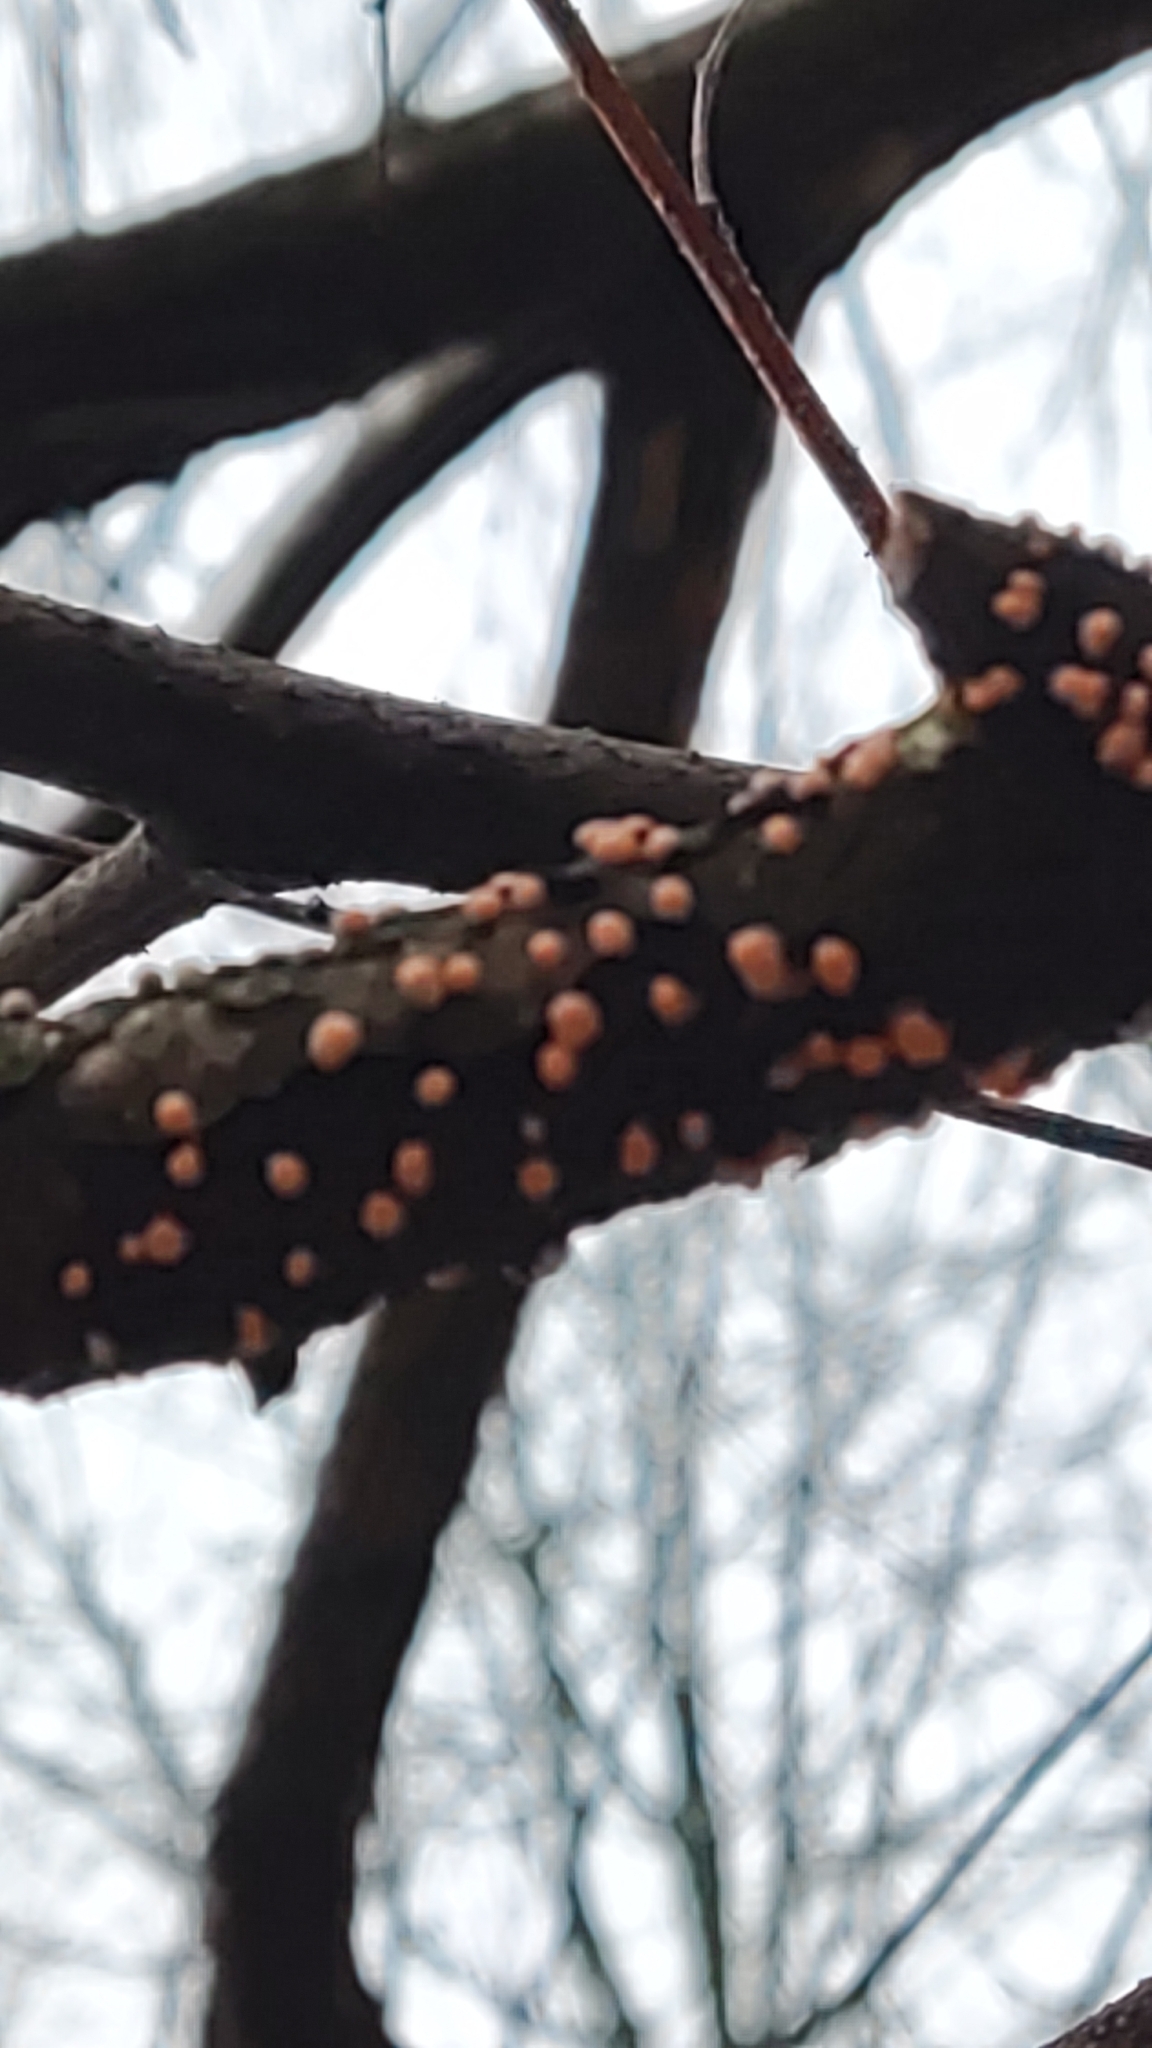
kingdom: Fungi
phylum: Ascomycota
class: Sordariomycetes
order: Hypocreales
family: Nectriaceae
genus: Nectria
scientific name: Nectria cinnabarina
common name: Coral spot
